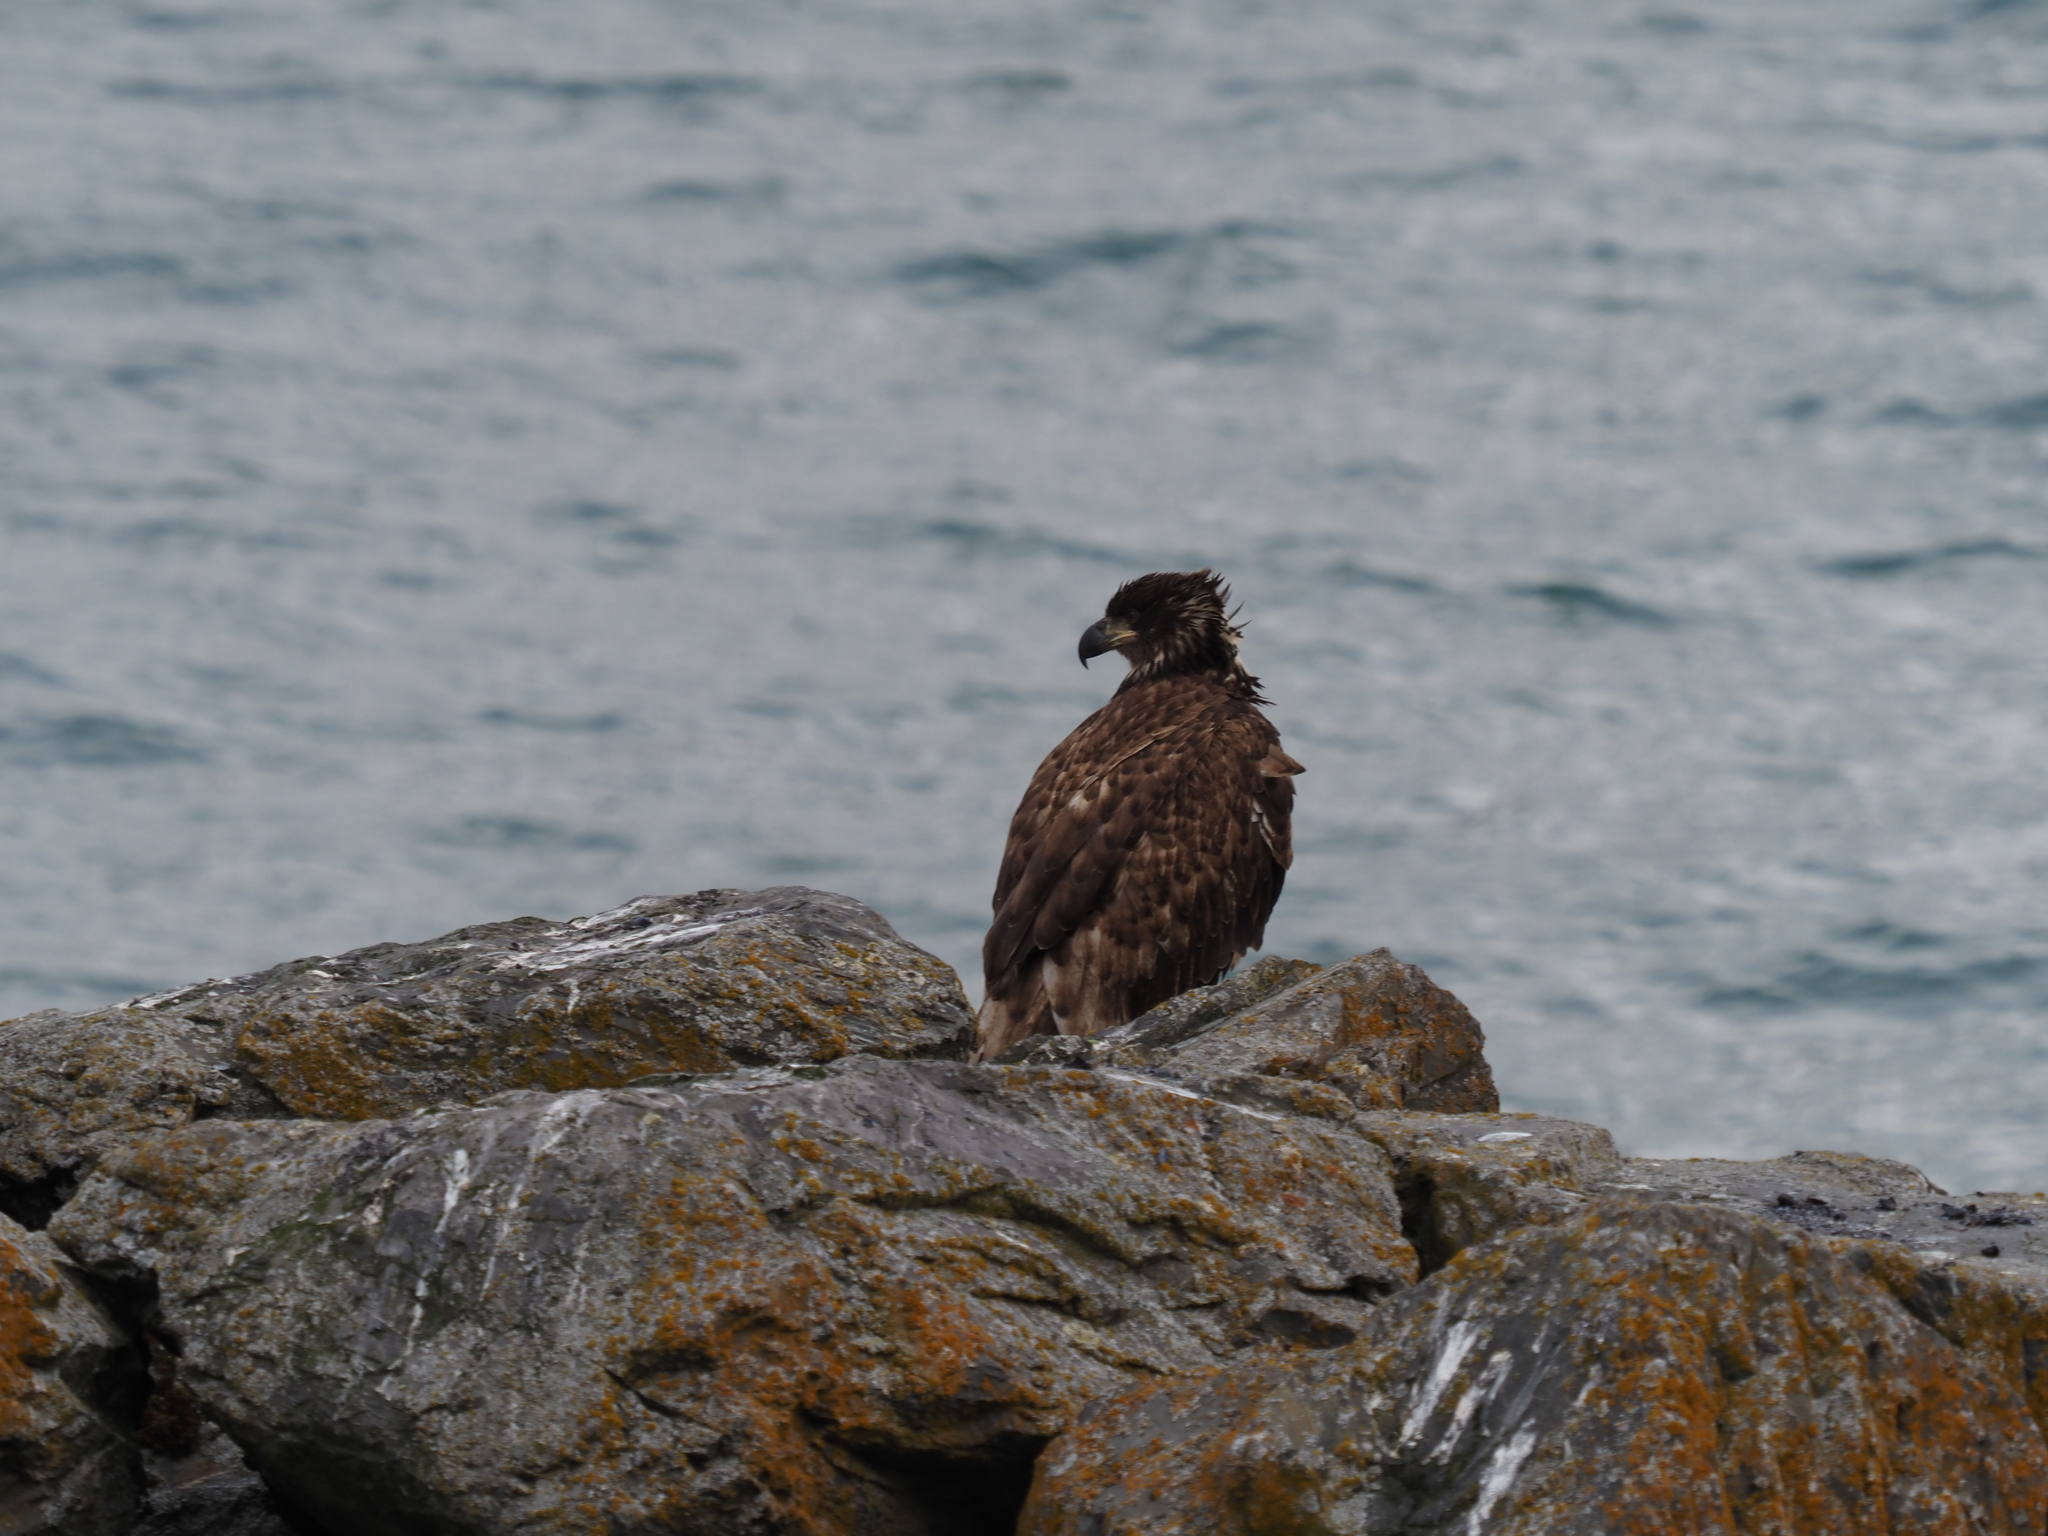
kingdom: Animalia
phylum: Chordata
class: Aves
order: Accipitriformes
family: Accipitridae
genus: Haliaeetus
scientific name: Haliaeetus leucocephalus
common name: Bald eagle
